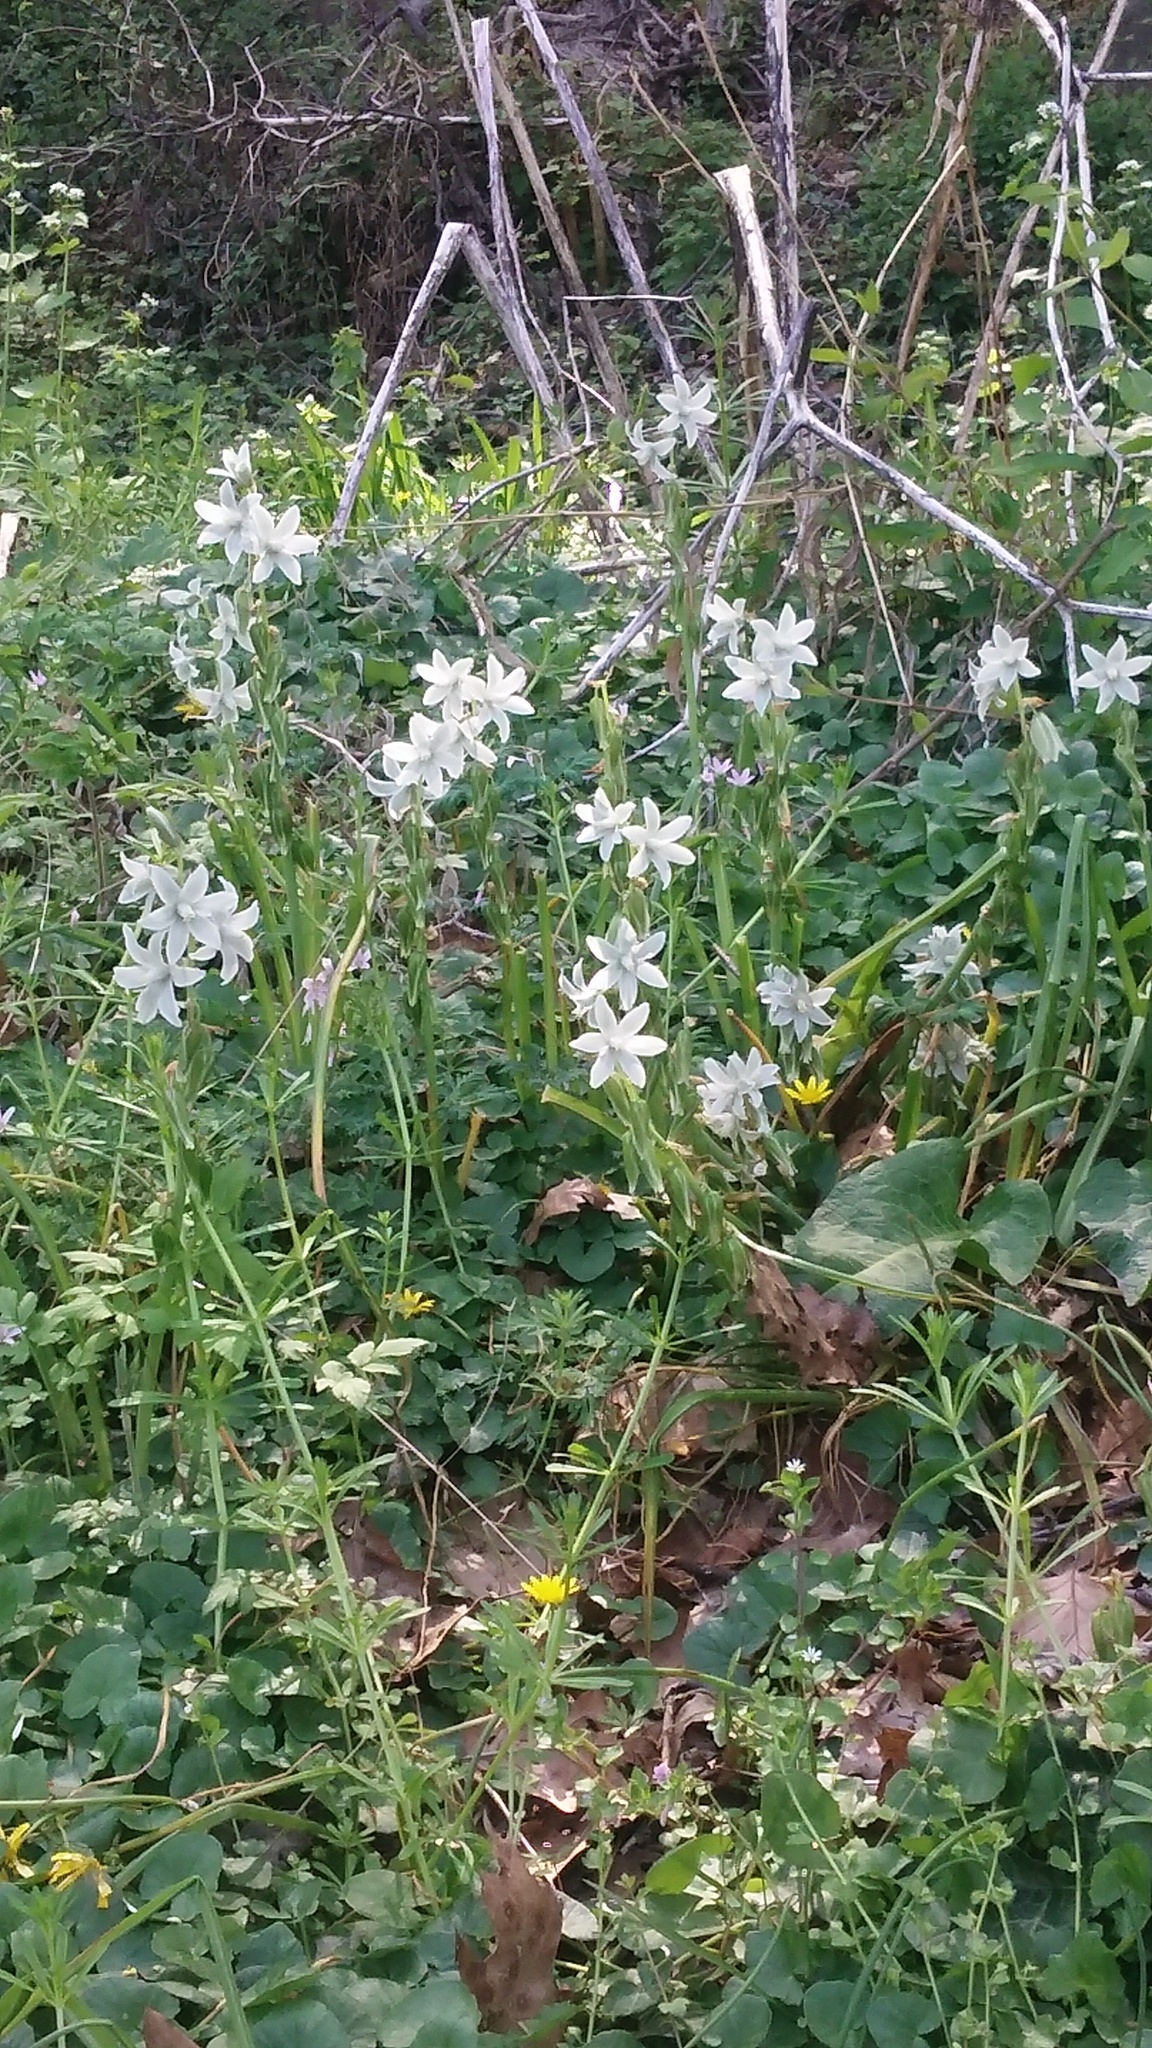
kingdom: Plantae
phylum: Tracheophyta
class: Liliopsida
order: Asparagales
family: Asparagaceae
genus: Ornithogalum
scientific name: Ornithogalum nutans
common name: Drooping star-of-bethlehem
